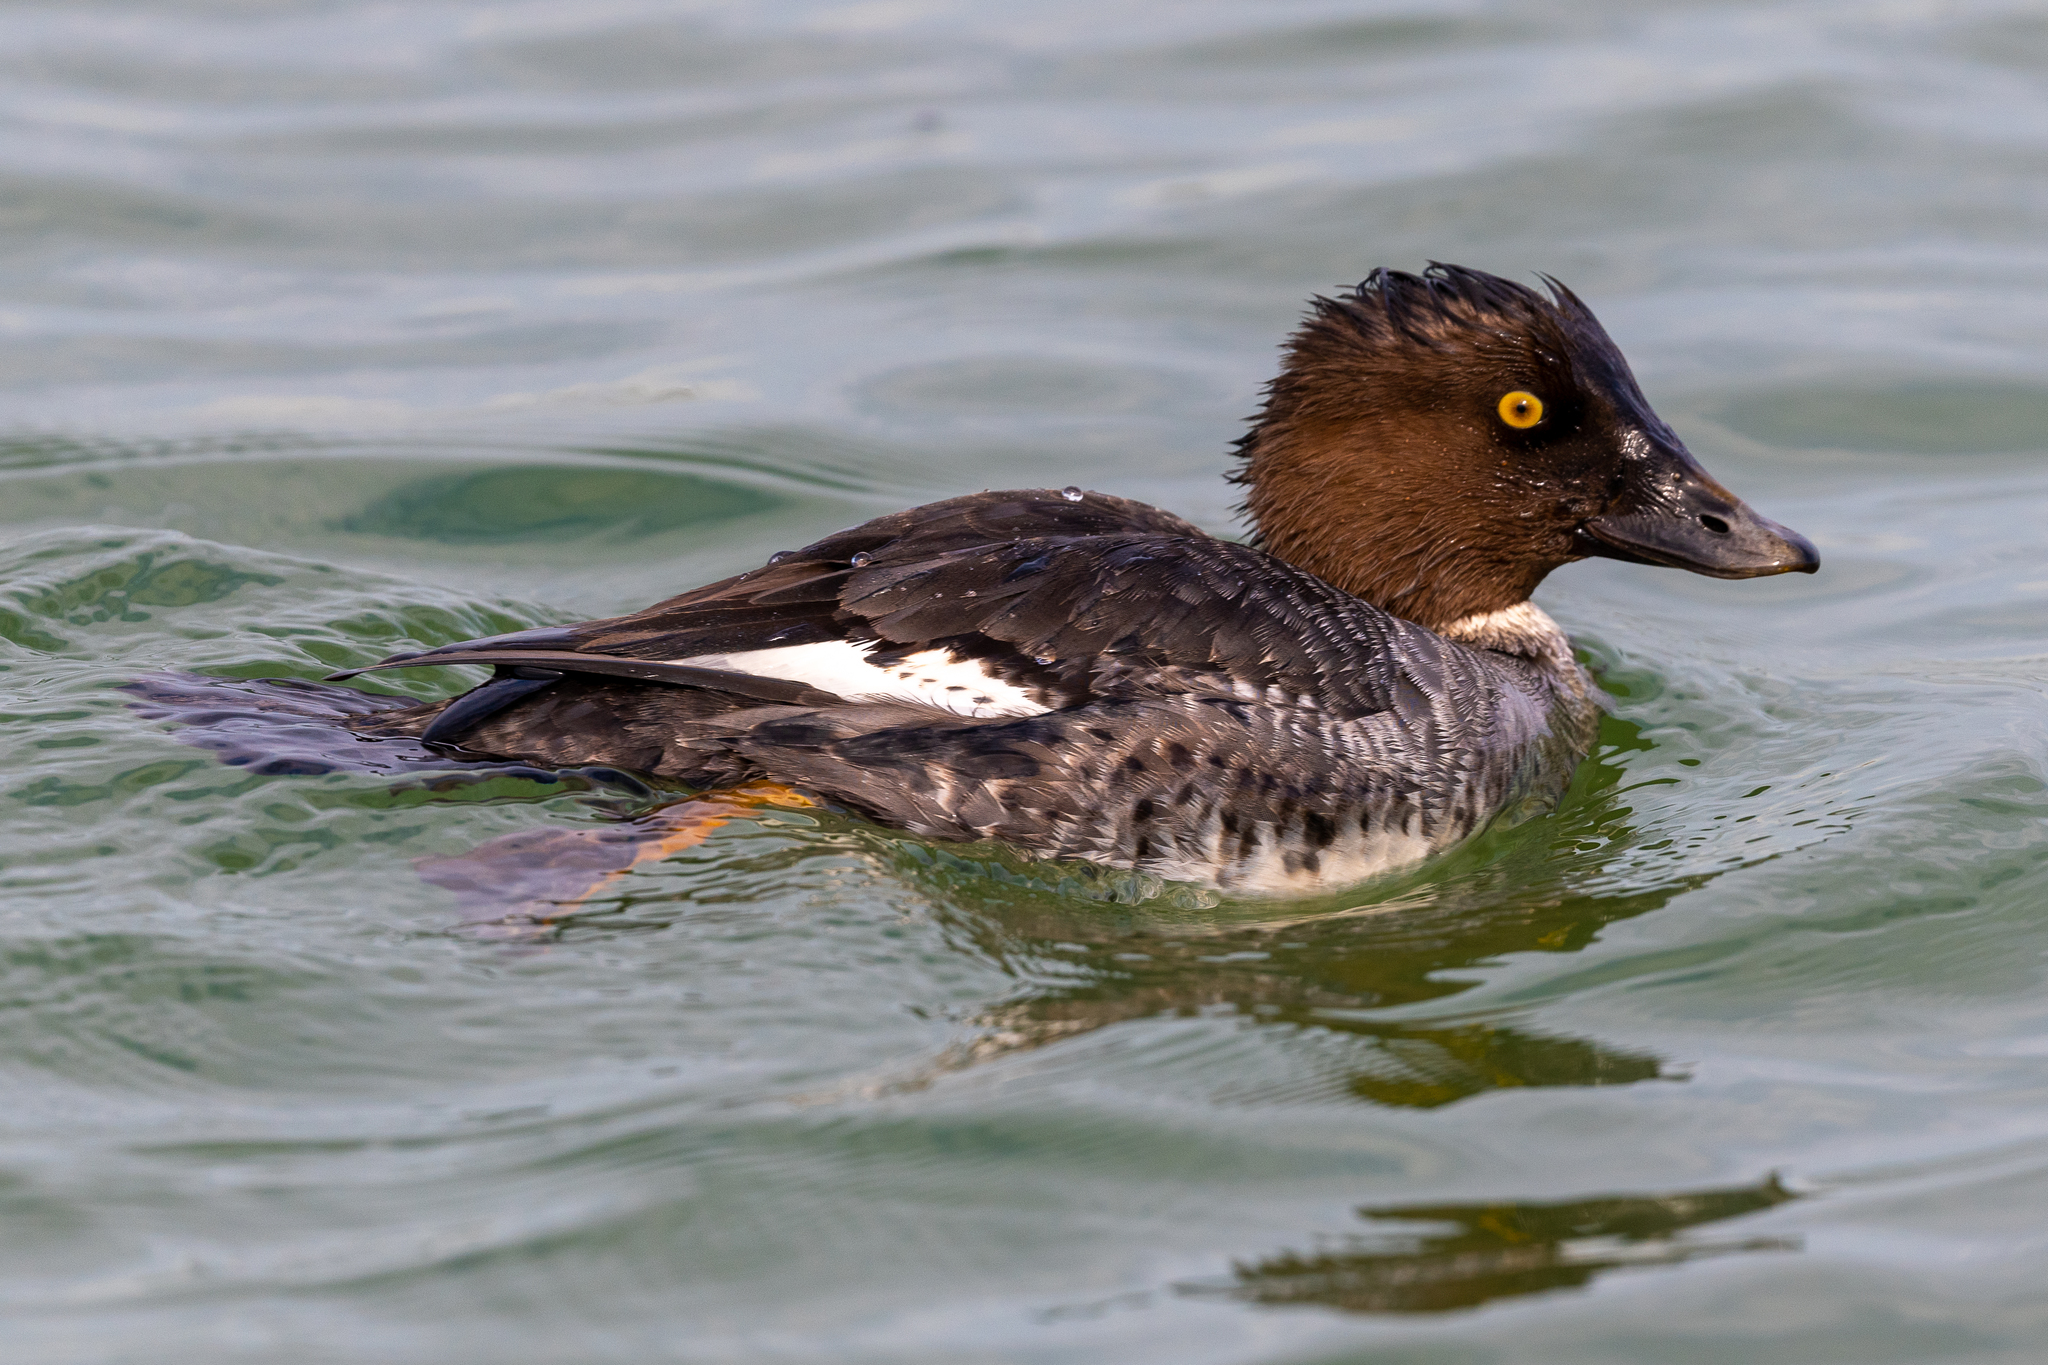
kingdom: Animalia
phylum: Chordata
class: Aves
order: Anseriformes
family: Anatidae
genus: Bucephala
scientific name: Bucephala clangula
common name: Common goldeneye
